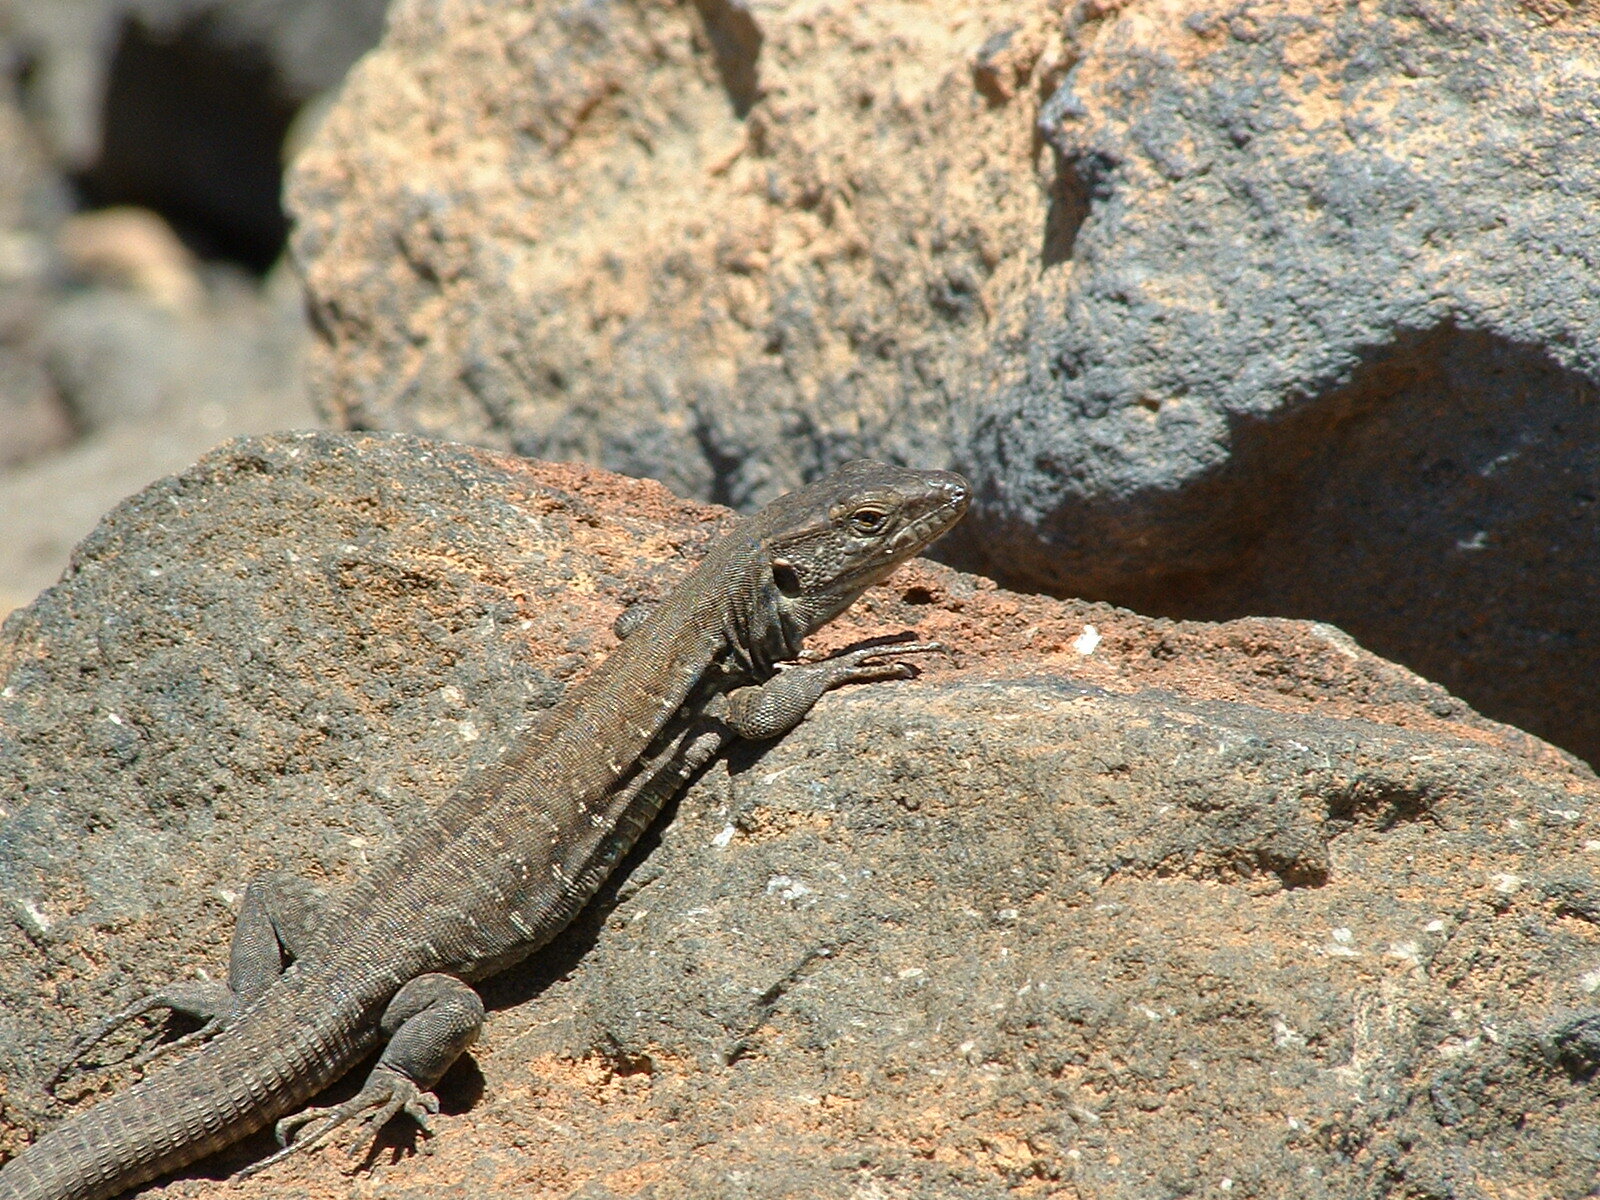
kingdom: Animalia
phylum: Chordata
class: Squamata
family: Lacertidae
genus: Gallotia
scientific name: Gallotia galloti
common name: Gallot's lizard
